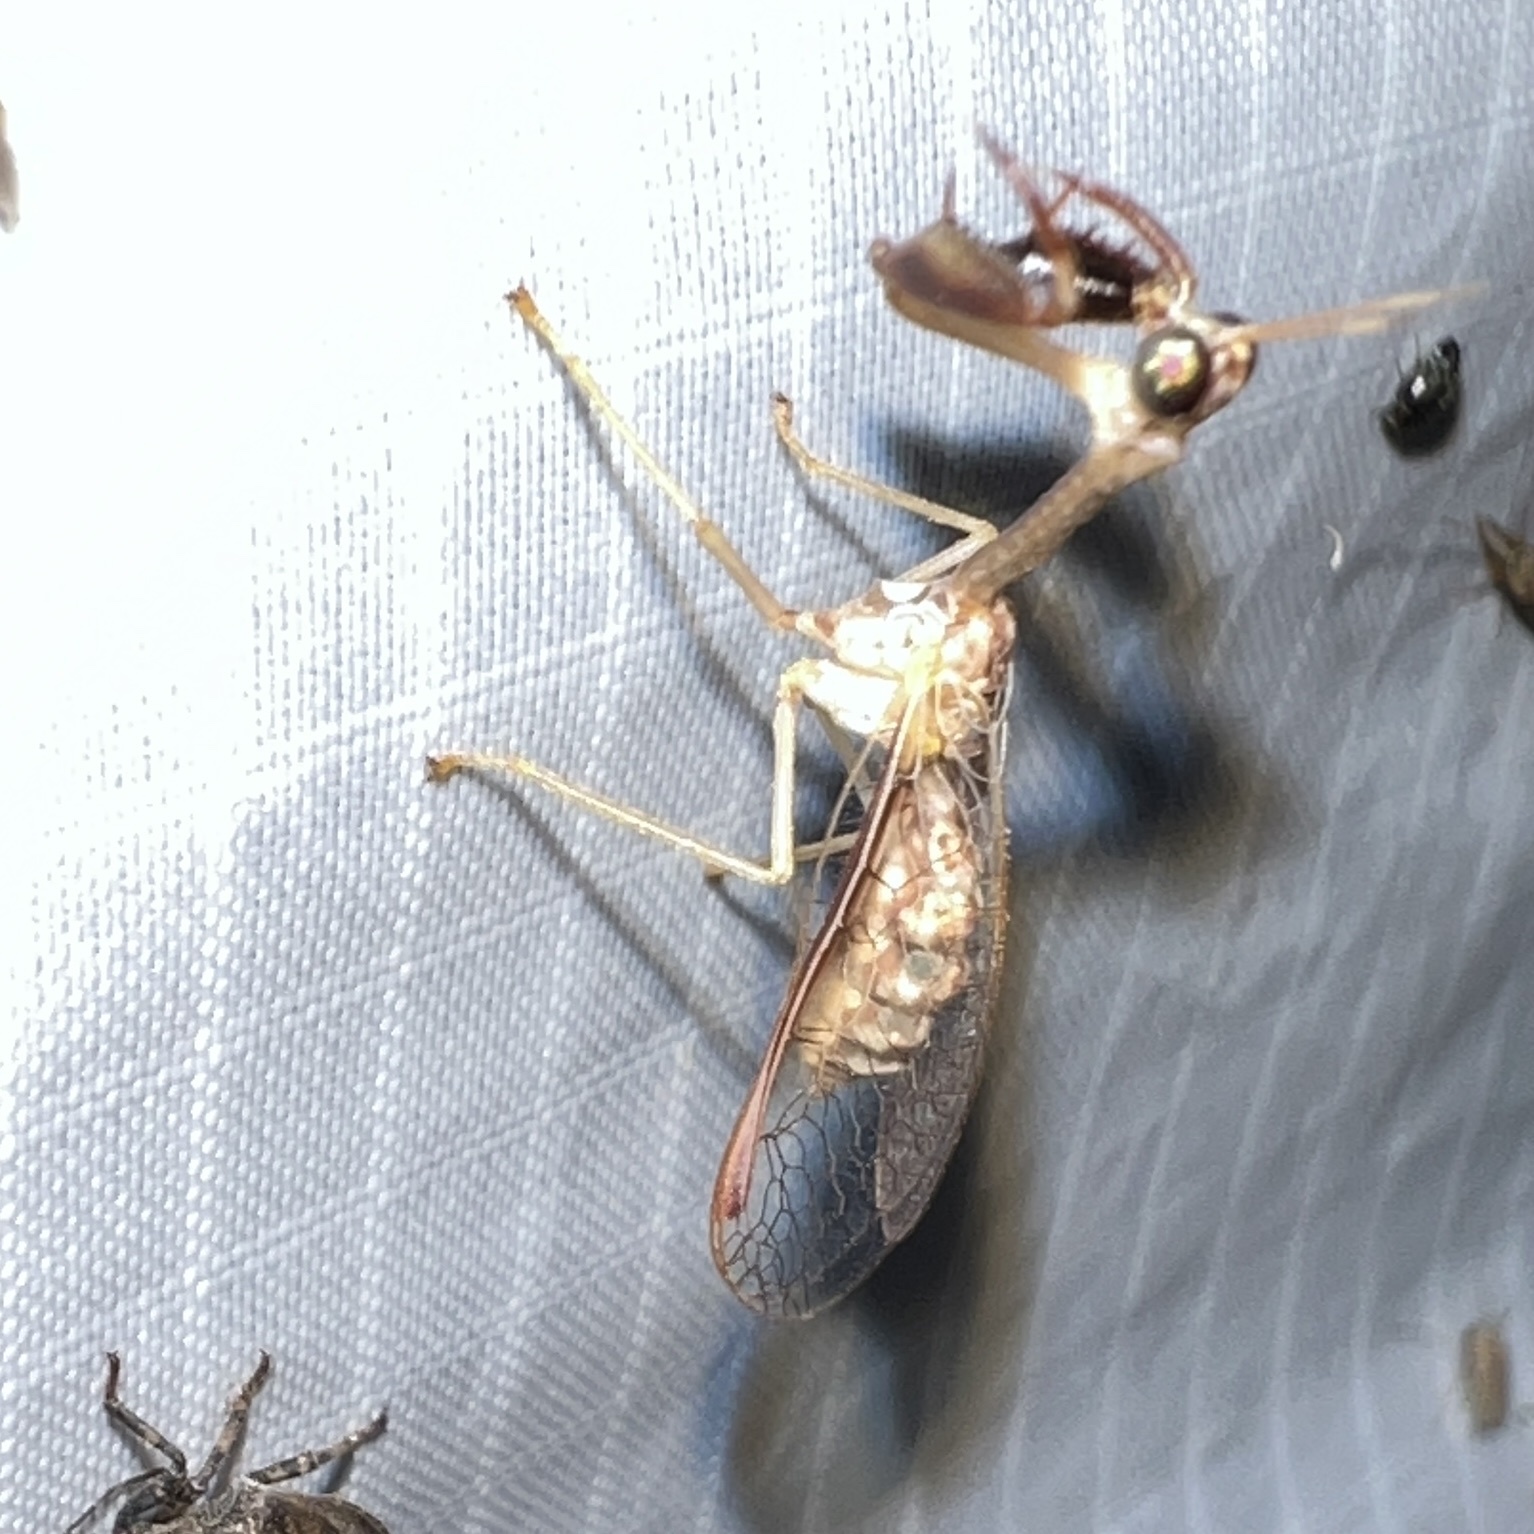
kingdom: Animalia
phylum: Arthropoda
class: Insecta
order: Neuroptera
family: Mantispidae
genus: Dicromantispa
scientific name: Dicromantispa sayi
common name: Say's mantidfly
